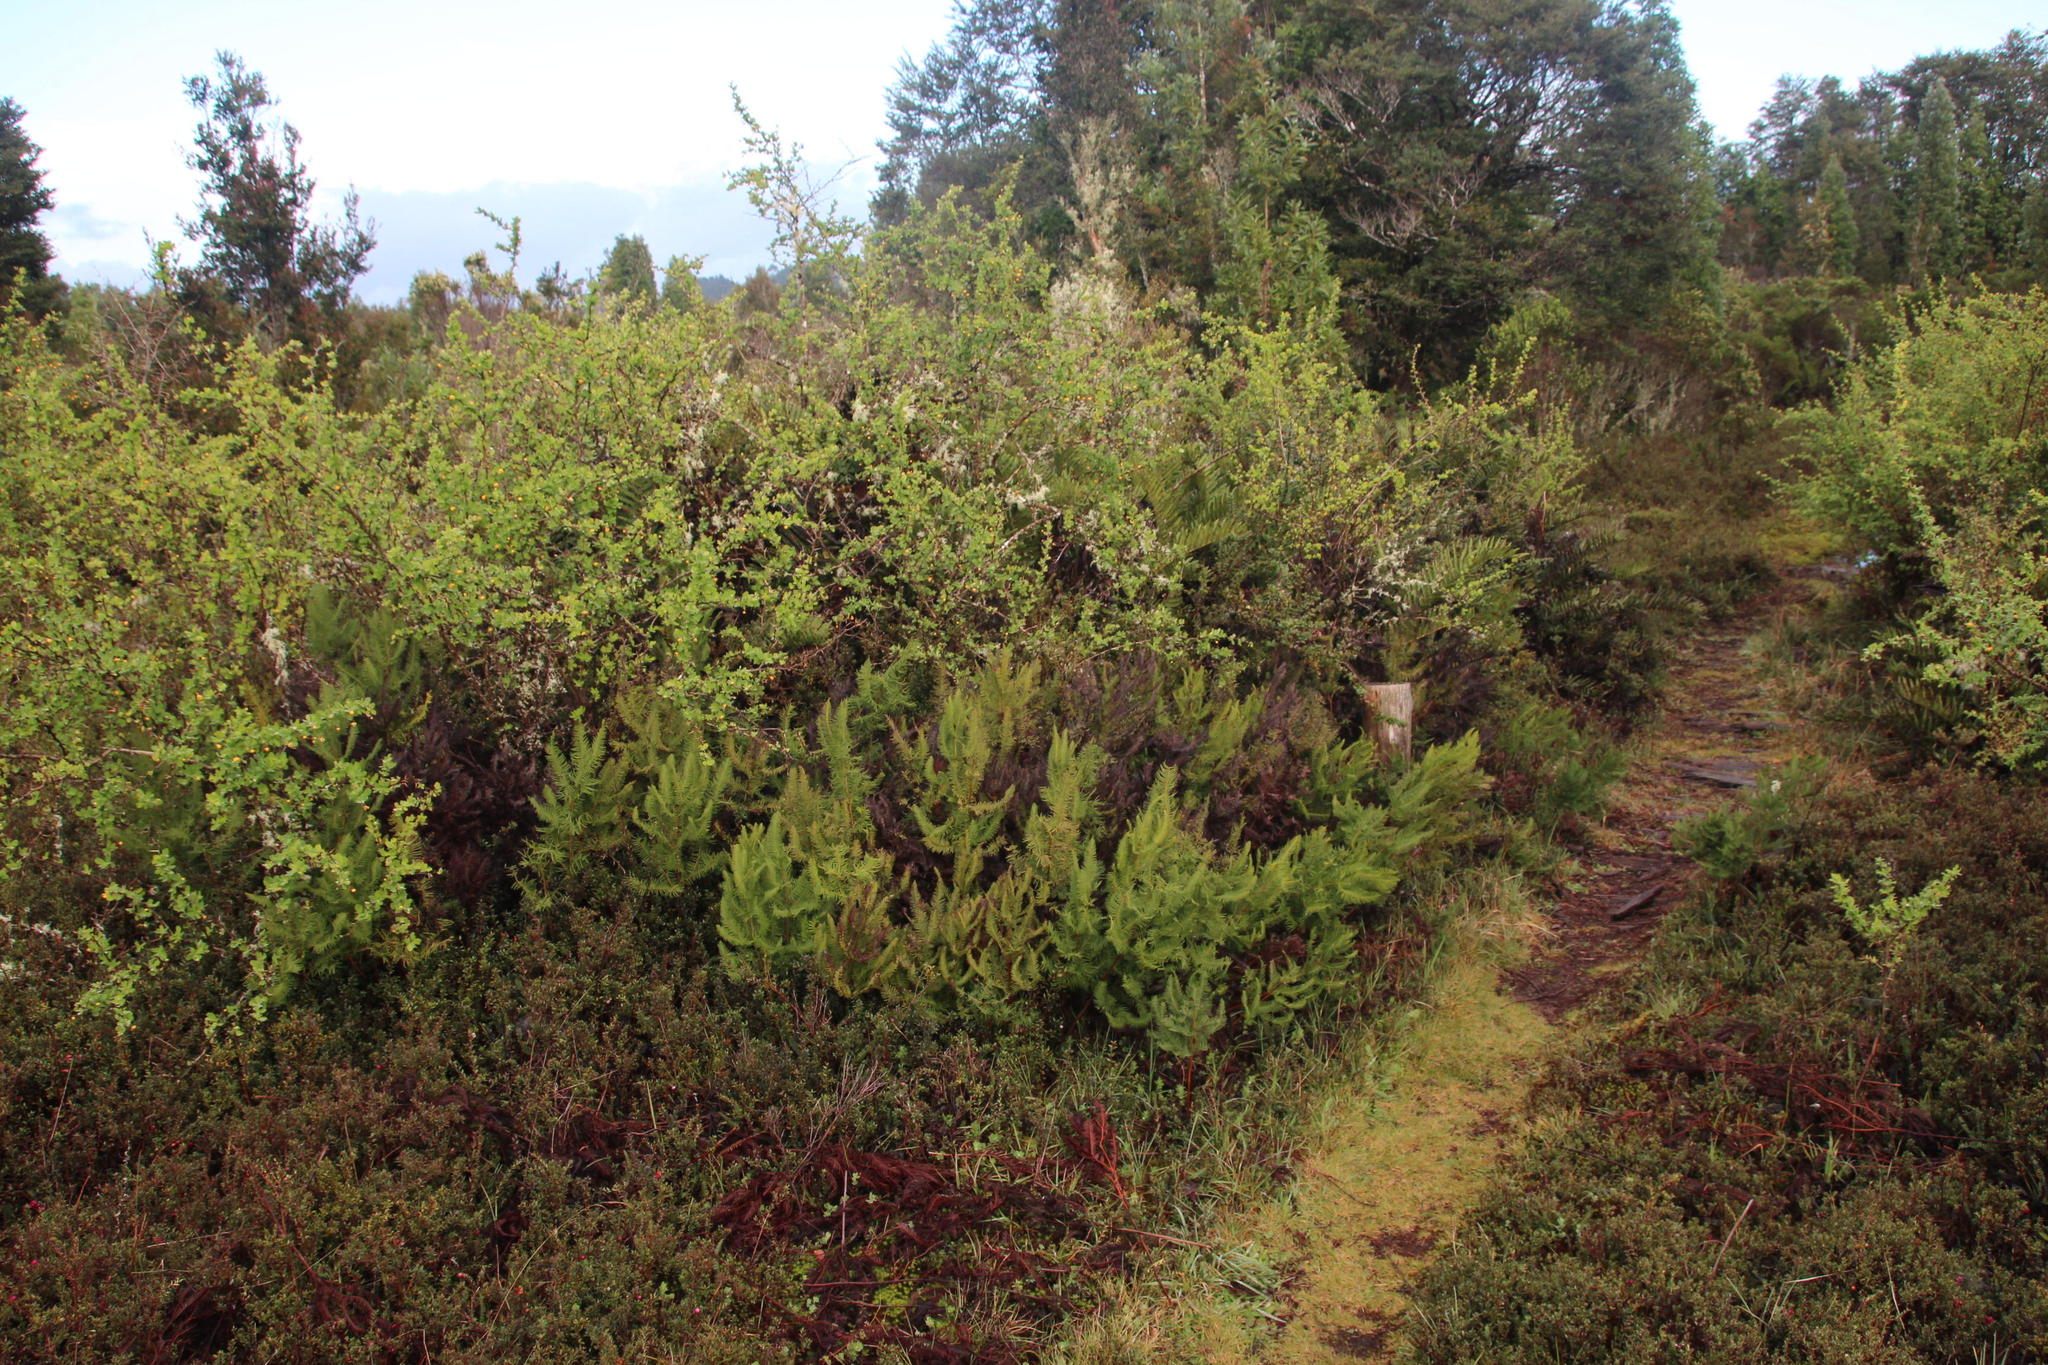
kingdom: Plantae
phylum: Tracheophyta
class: Polypodiopsida
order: Gleicheniales
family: Gleicheniaceae
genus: Sticherus
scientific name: Sticherus cryptocarpus
